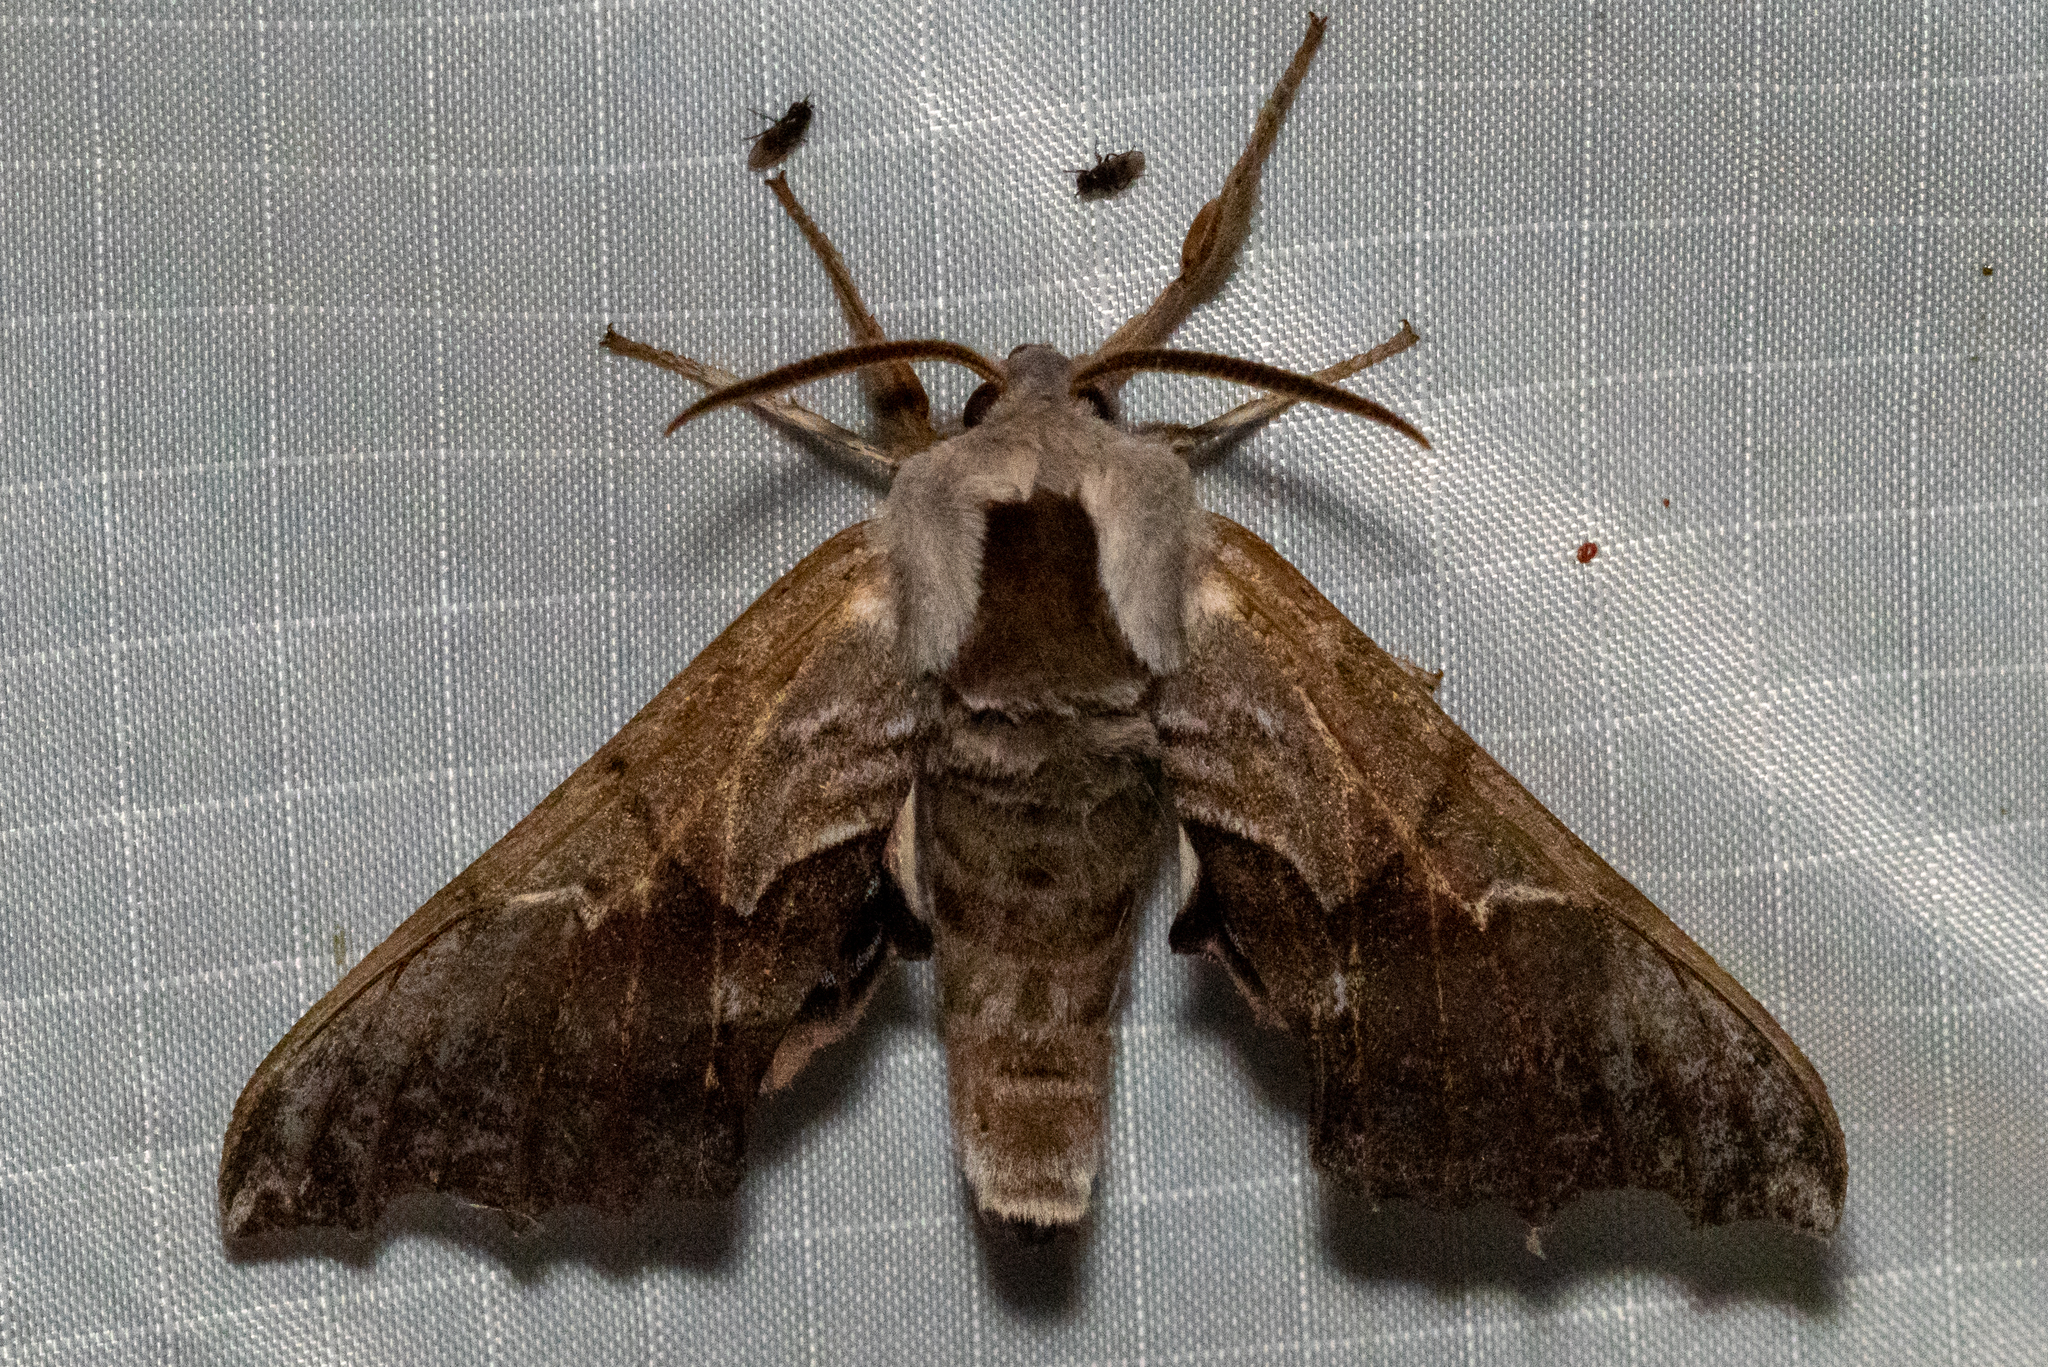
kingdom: Animalia
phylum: Arthropoda
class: Insecta
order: Lepidoptera
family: Sphingidae
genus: Smerinthus
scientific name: Smerinthus cerisyi
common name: Cerisy's sphinx moth
